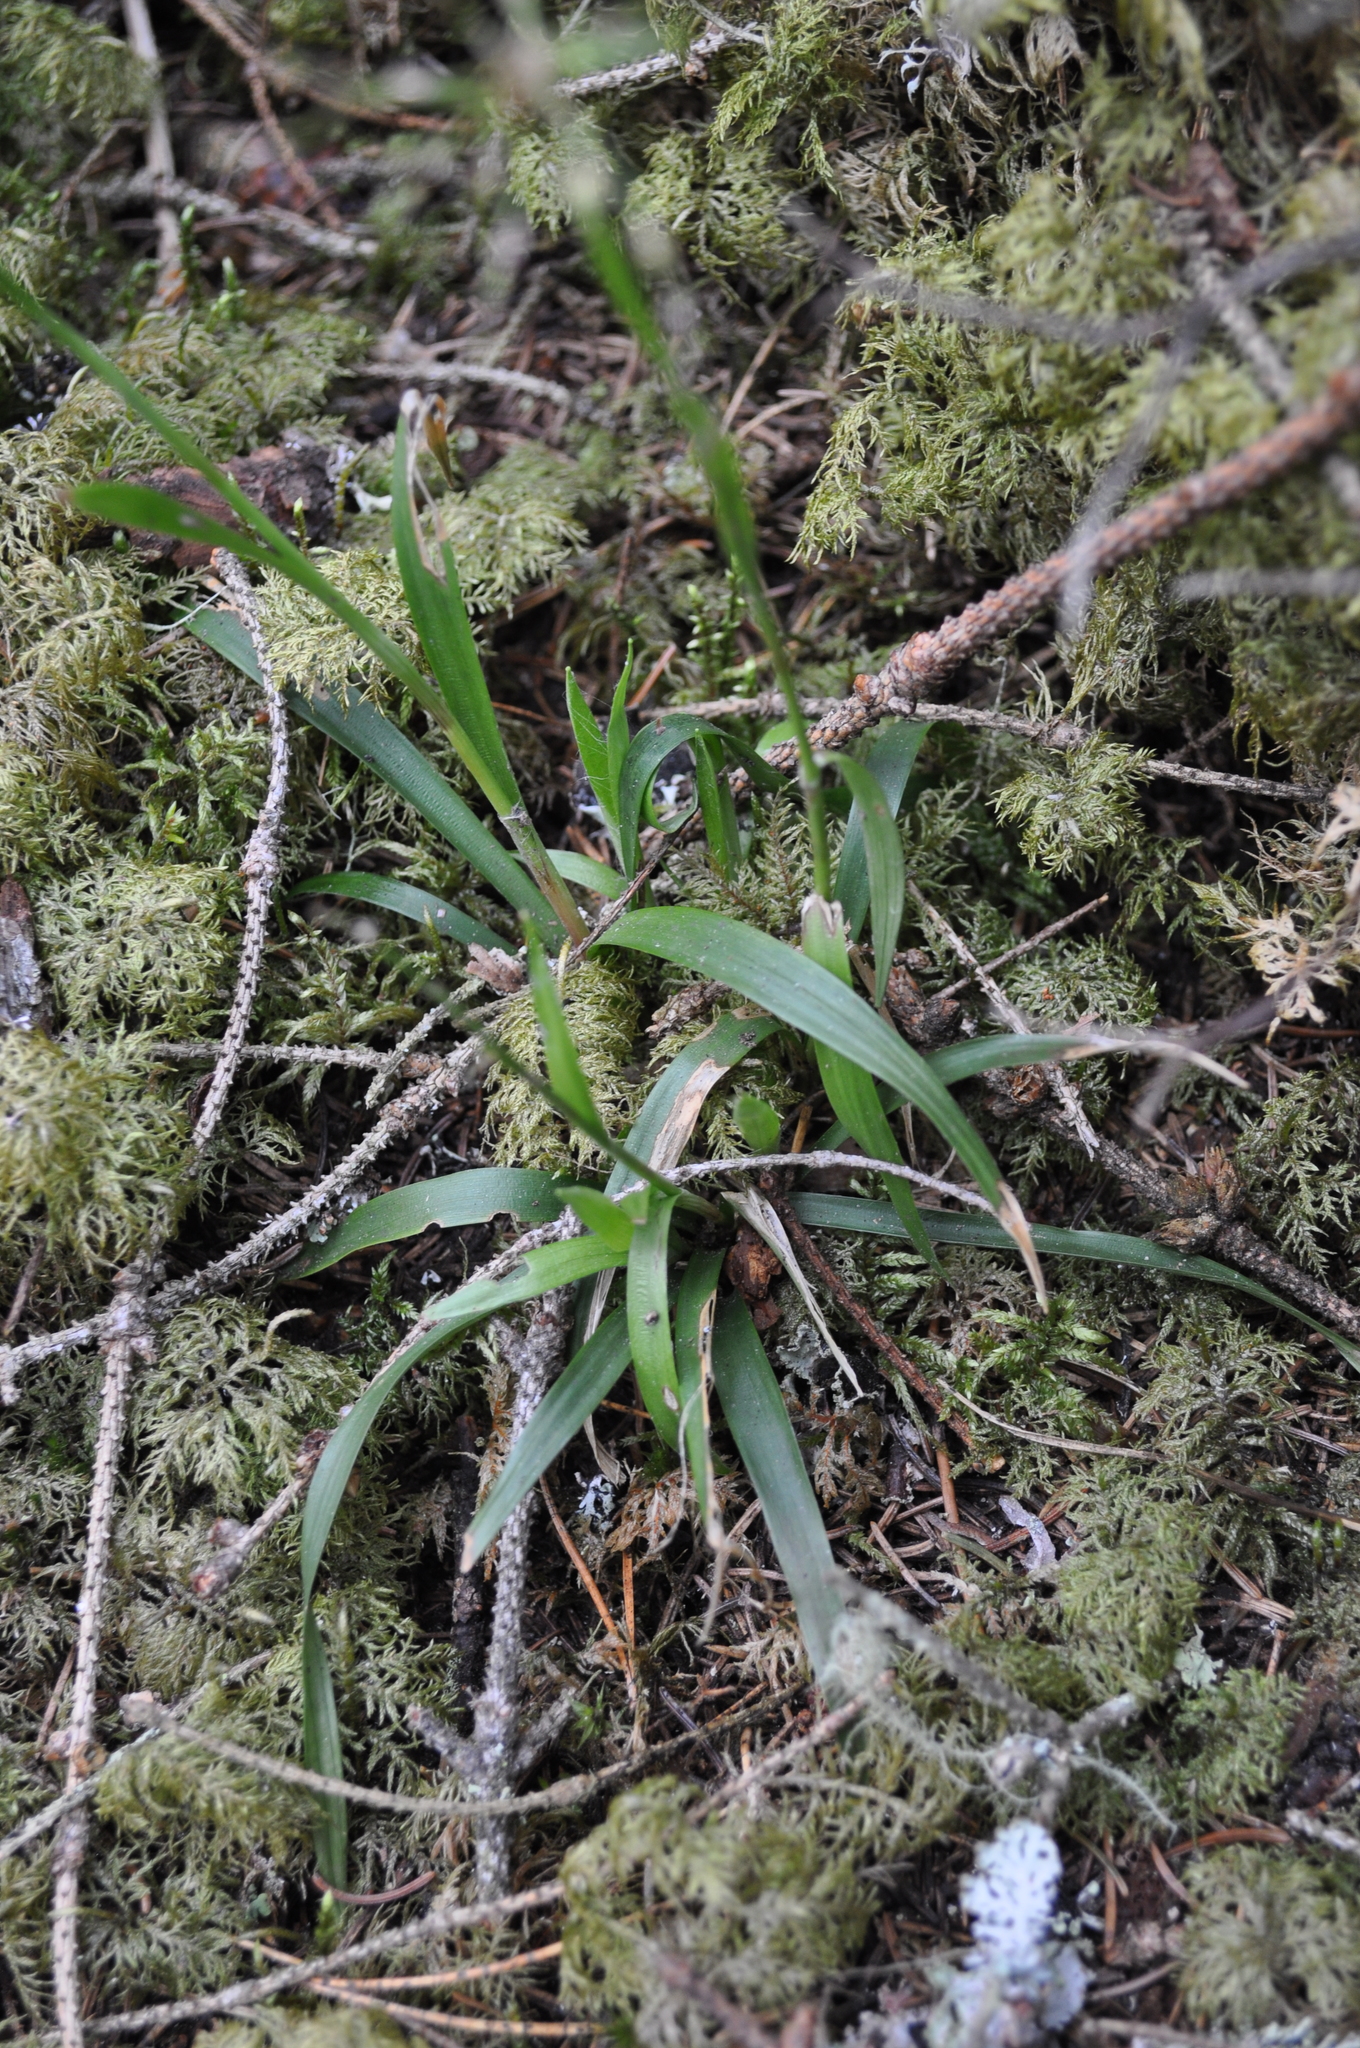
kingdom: Plantae
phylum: Tracheophyta
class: Liliopsida
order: Poales
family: Juncaceae
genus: Luzula
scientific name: Luzula pilosa
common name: Hairy wood-rush
